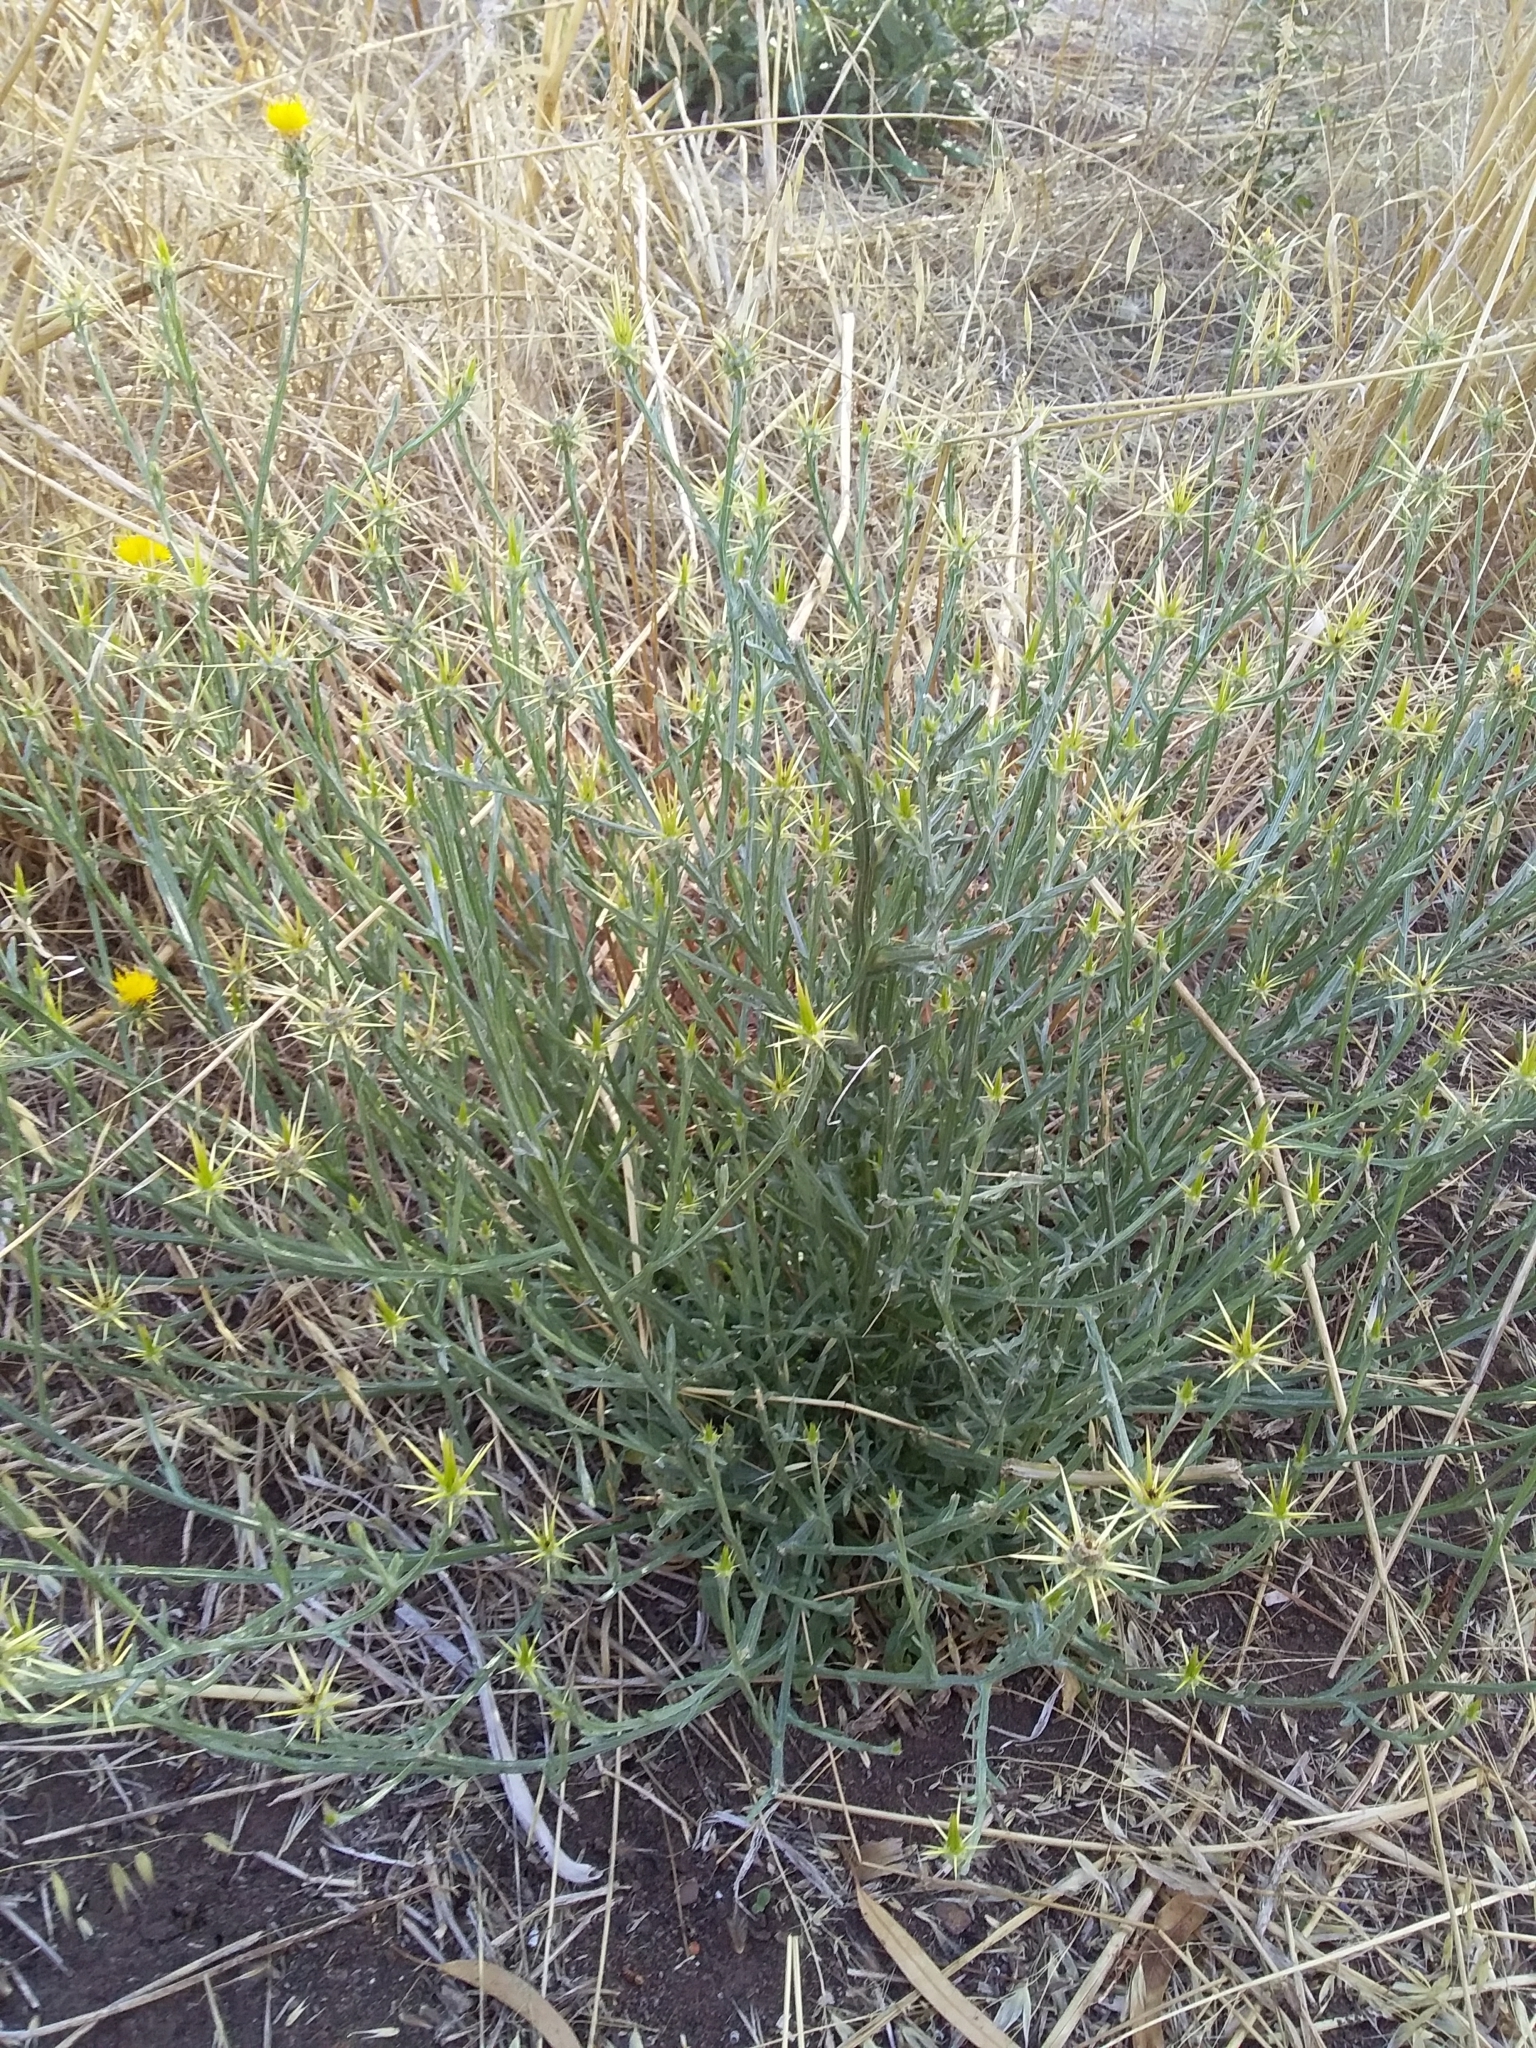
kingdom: Plantae
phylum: Tracheophyta
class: Magnoliopsida
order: Asterales
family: Asteraceae
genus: Centaurea
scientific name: Centaurea solstitialis
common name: Yellow star-thistle
